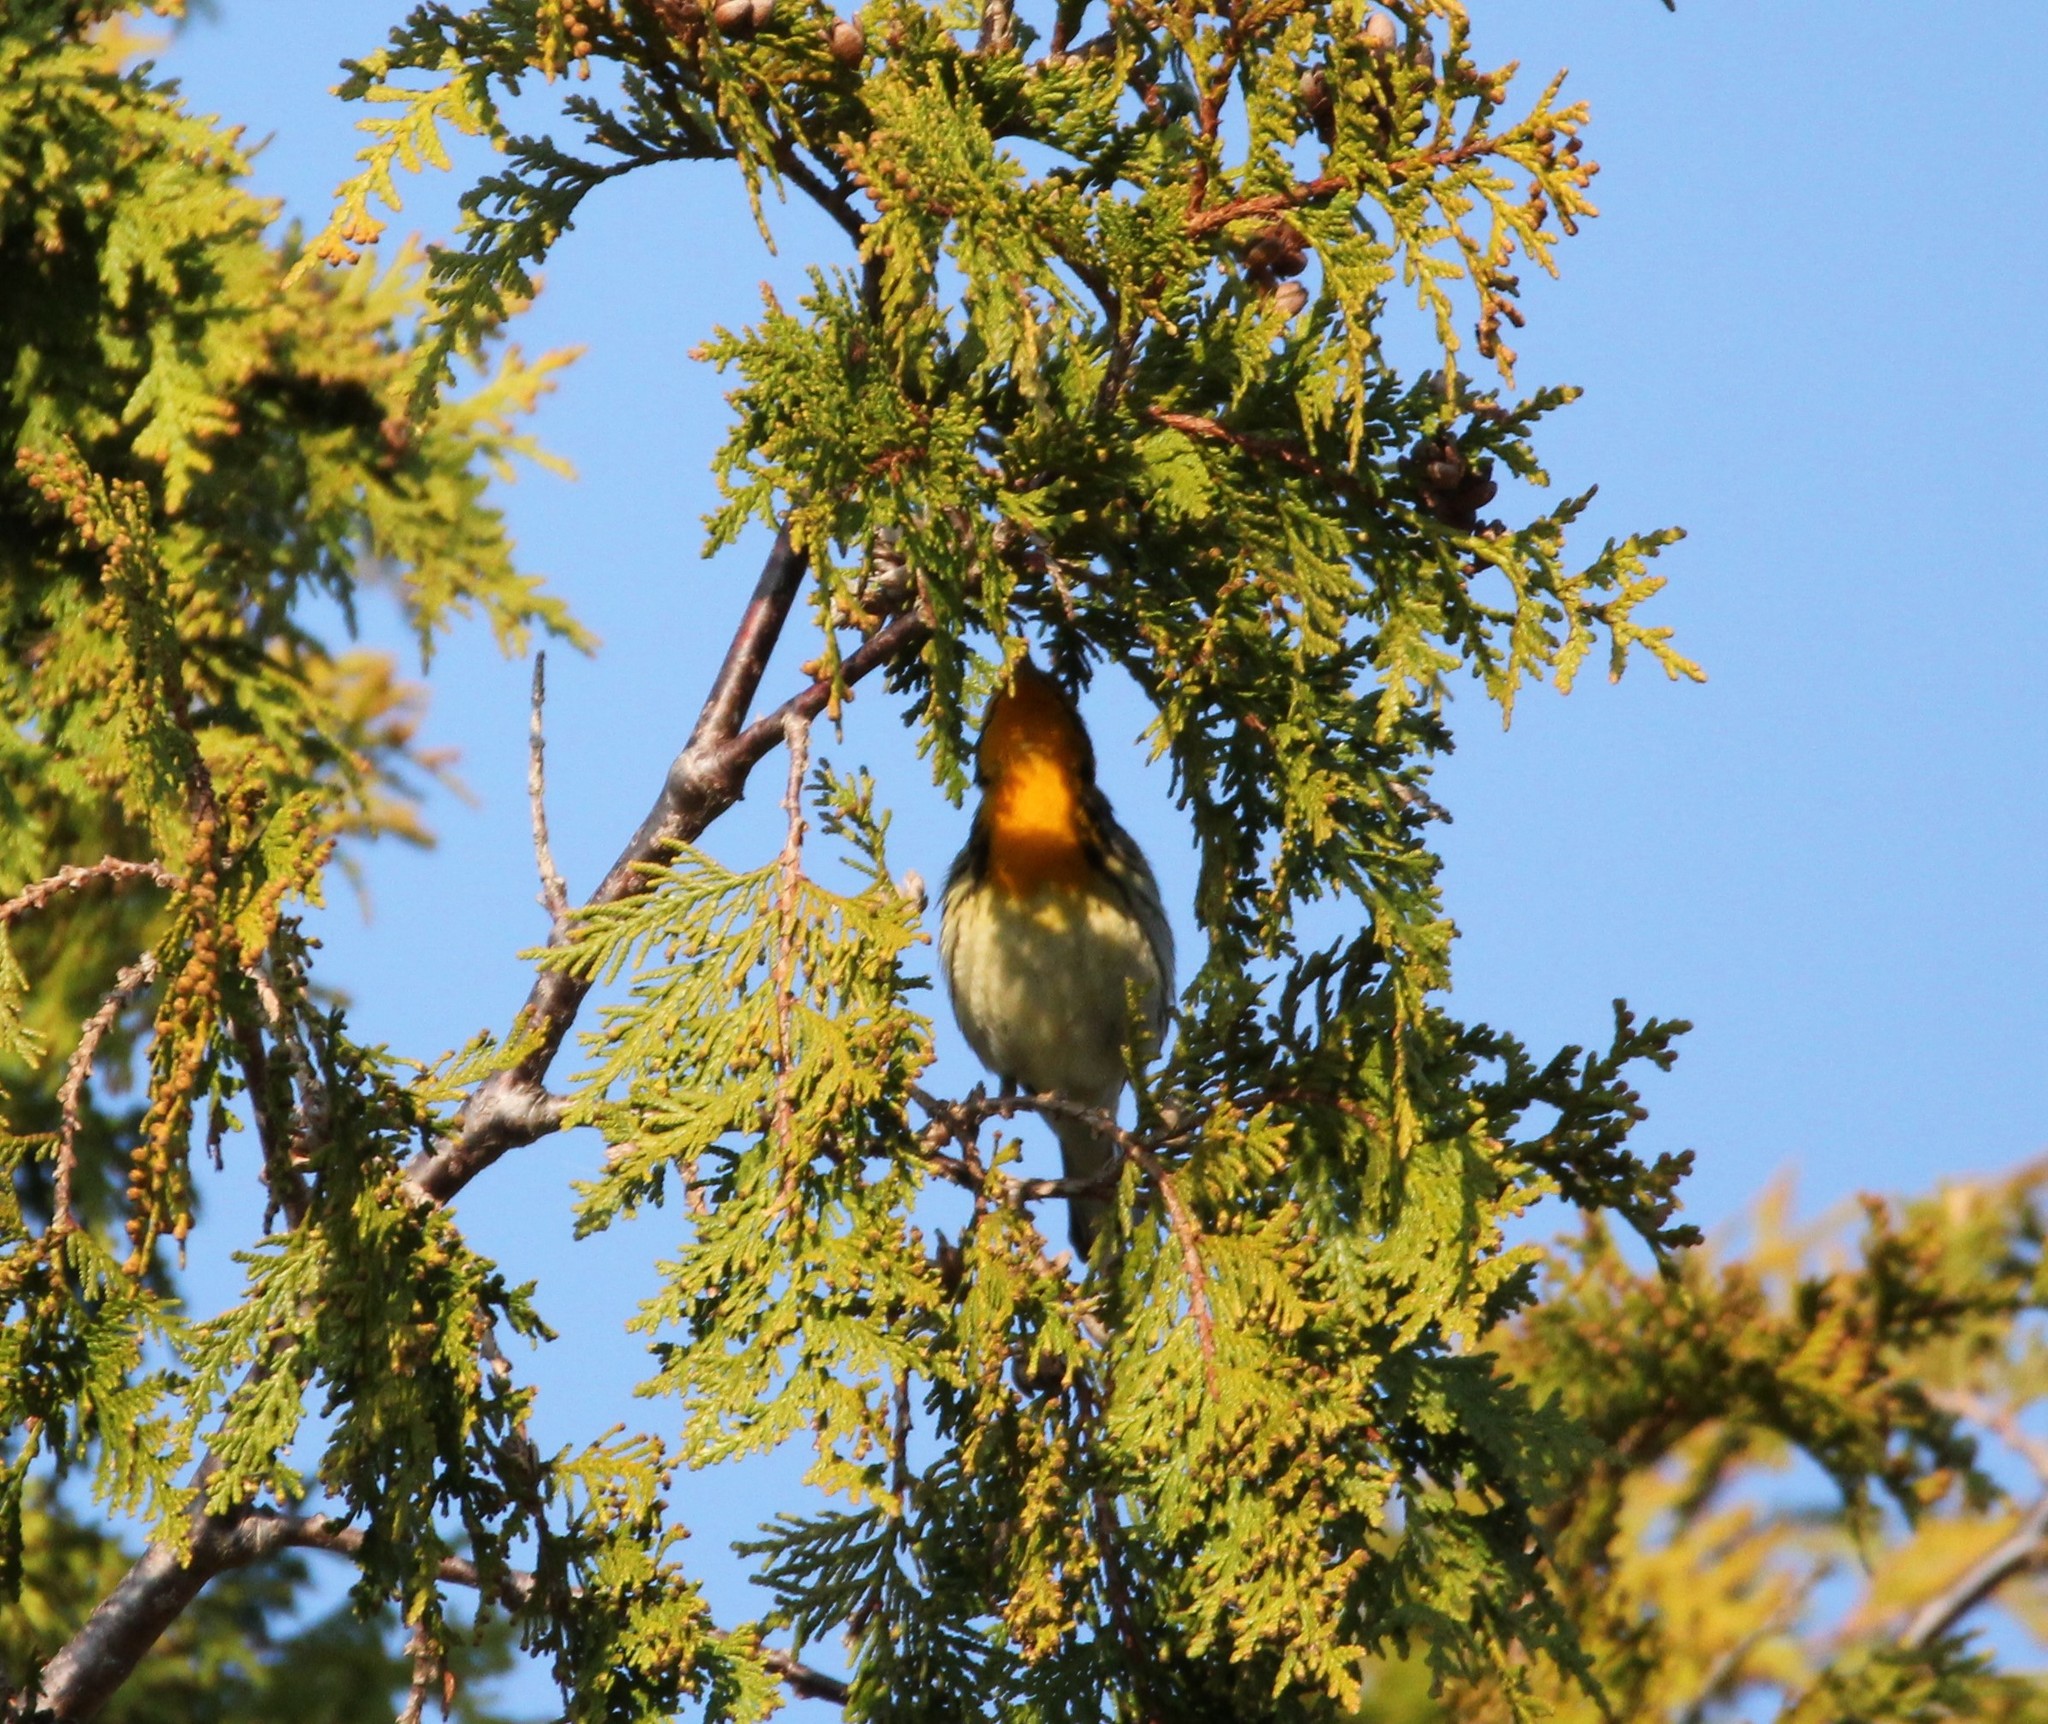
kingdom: Animalia
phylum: Chordata
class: Aves
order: Passeriformes
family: Parulidae
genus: Setophaga
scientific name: Setophaga fusca
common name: Blackburnian warbler
